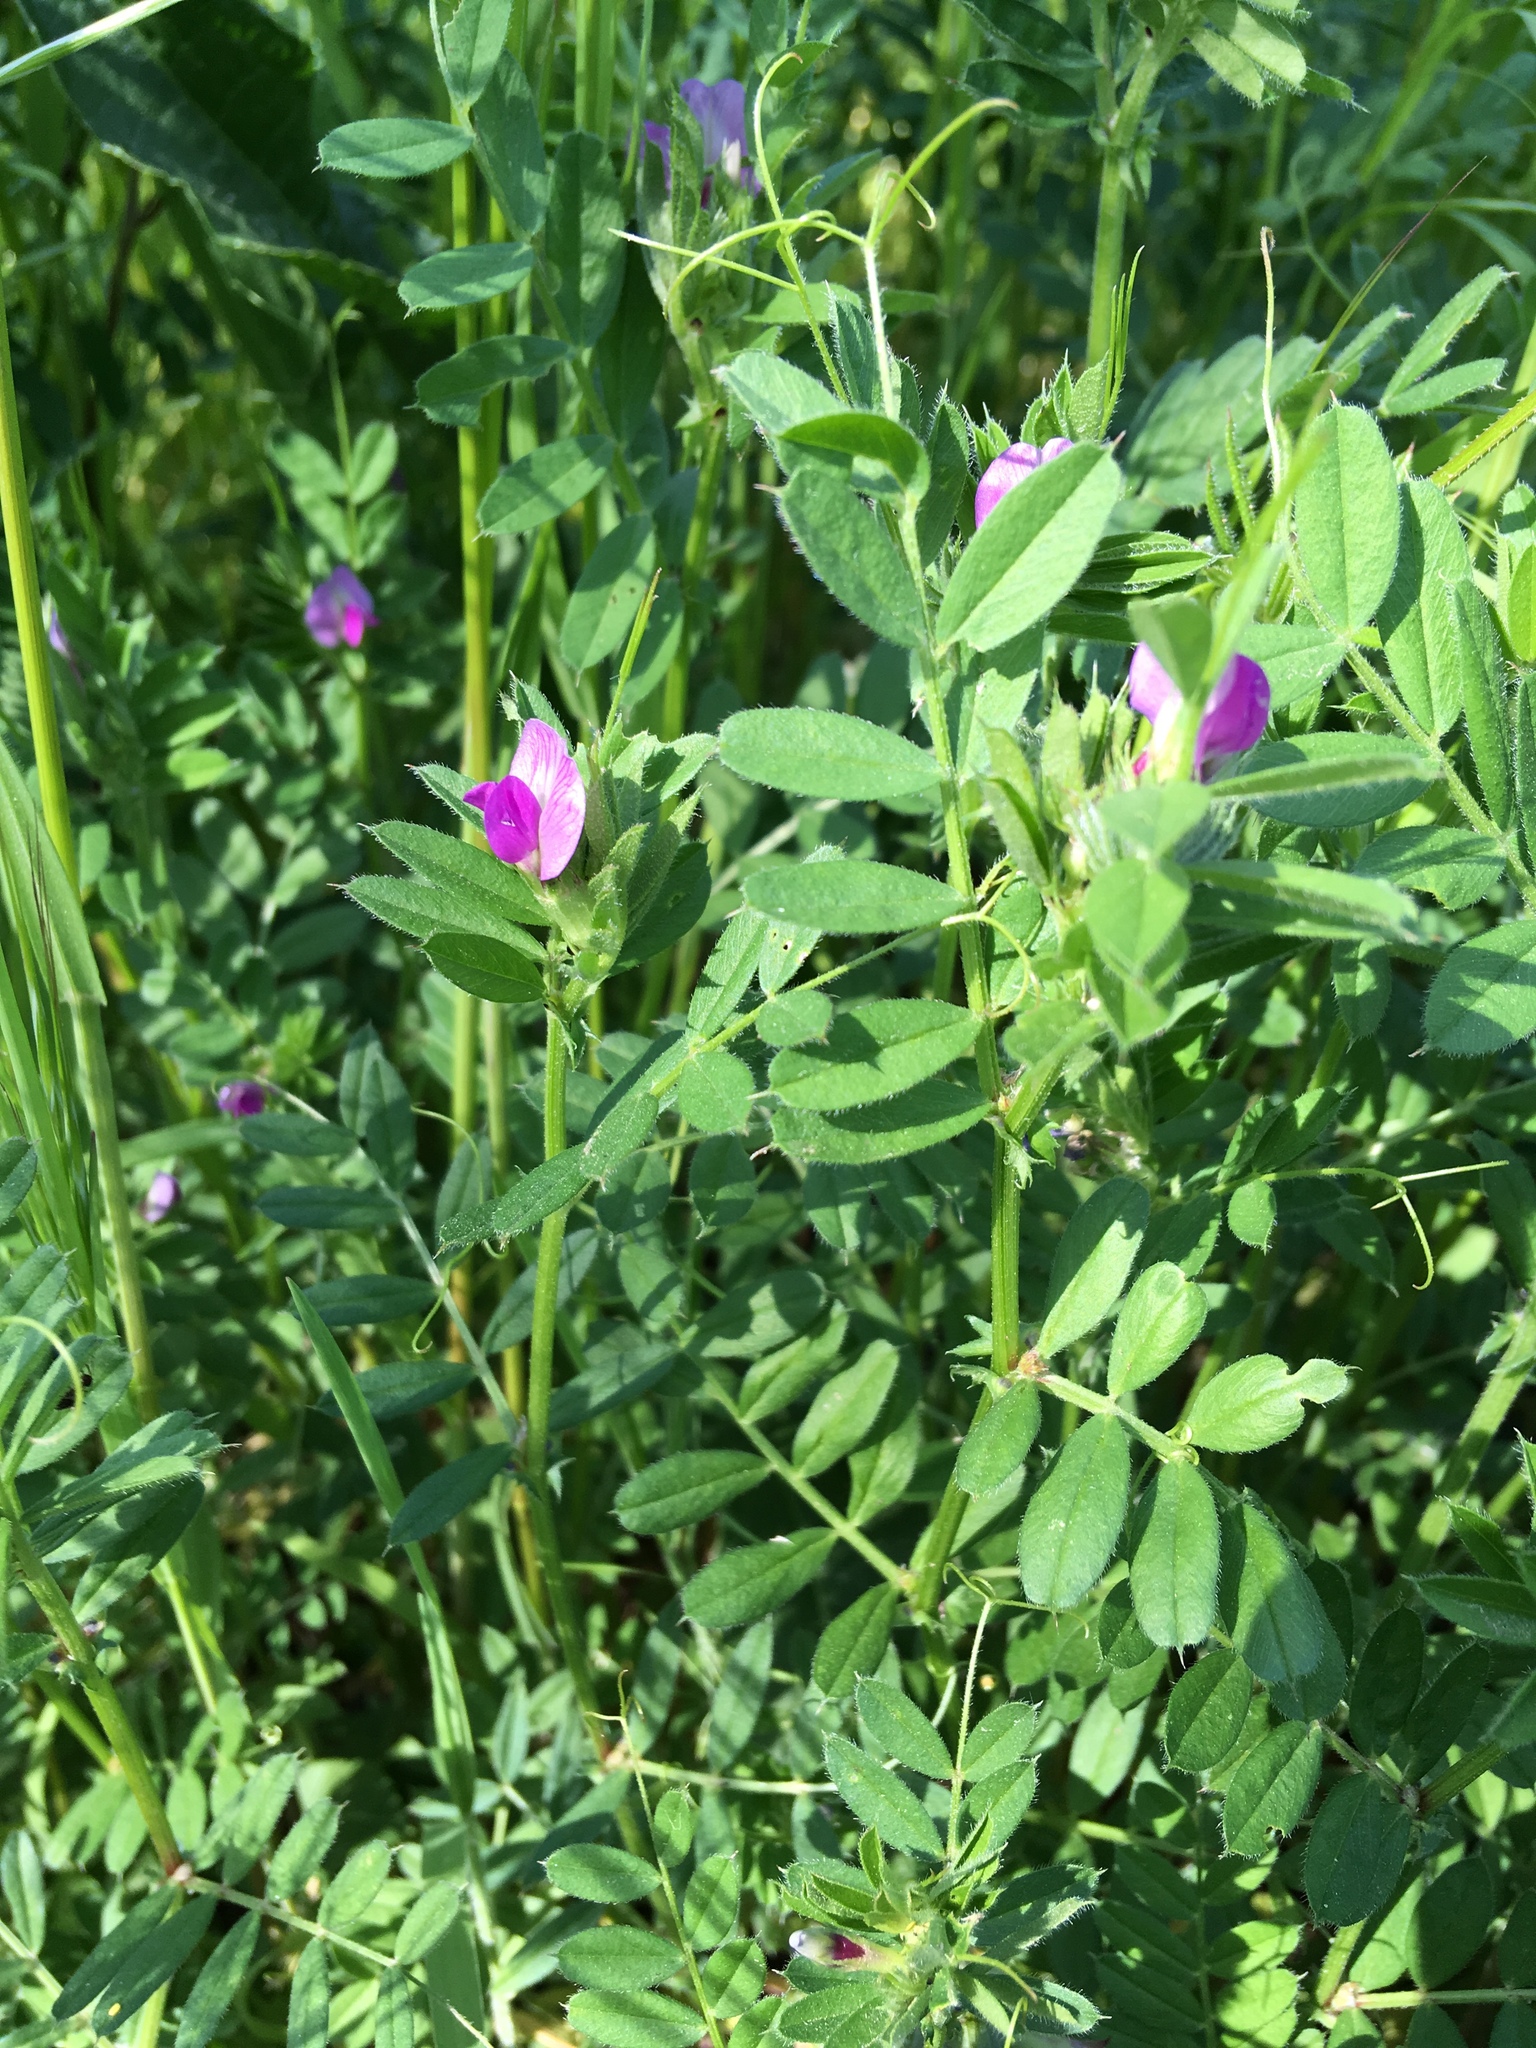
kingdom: Plantae
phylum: Tracheophyta
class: Magnoliopsida
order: Fabales
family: Fabaceae
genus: Vicia
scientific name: Vicia sativa
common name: Garden vetch
